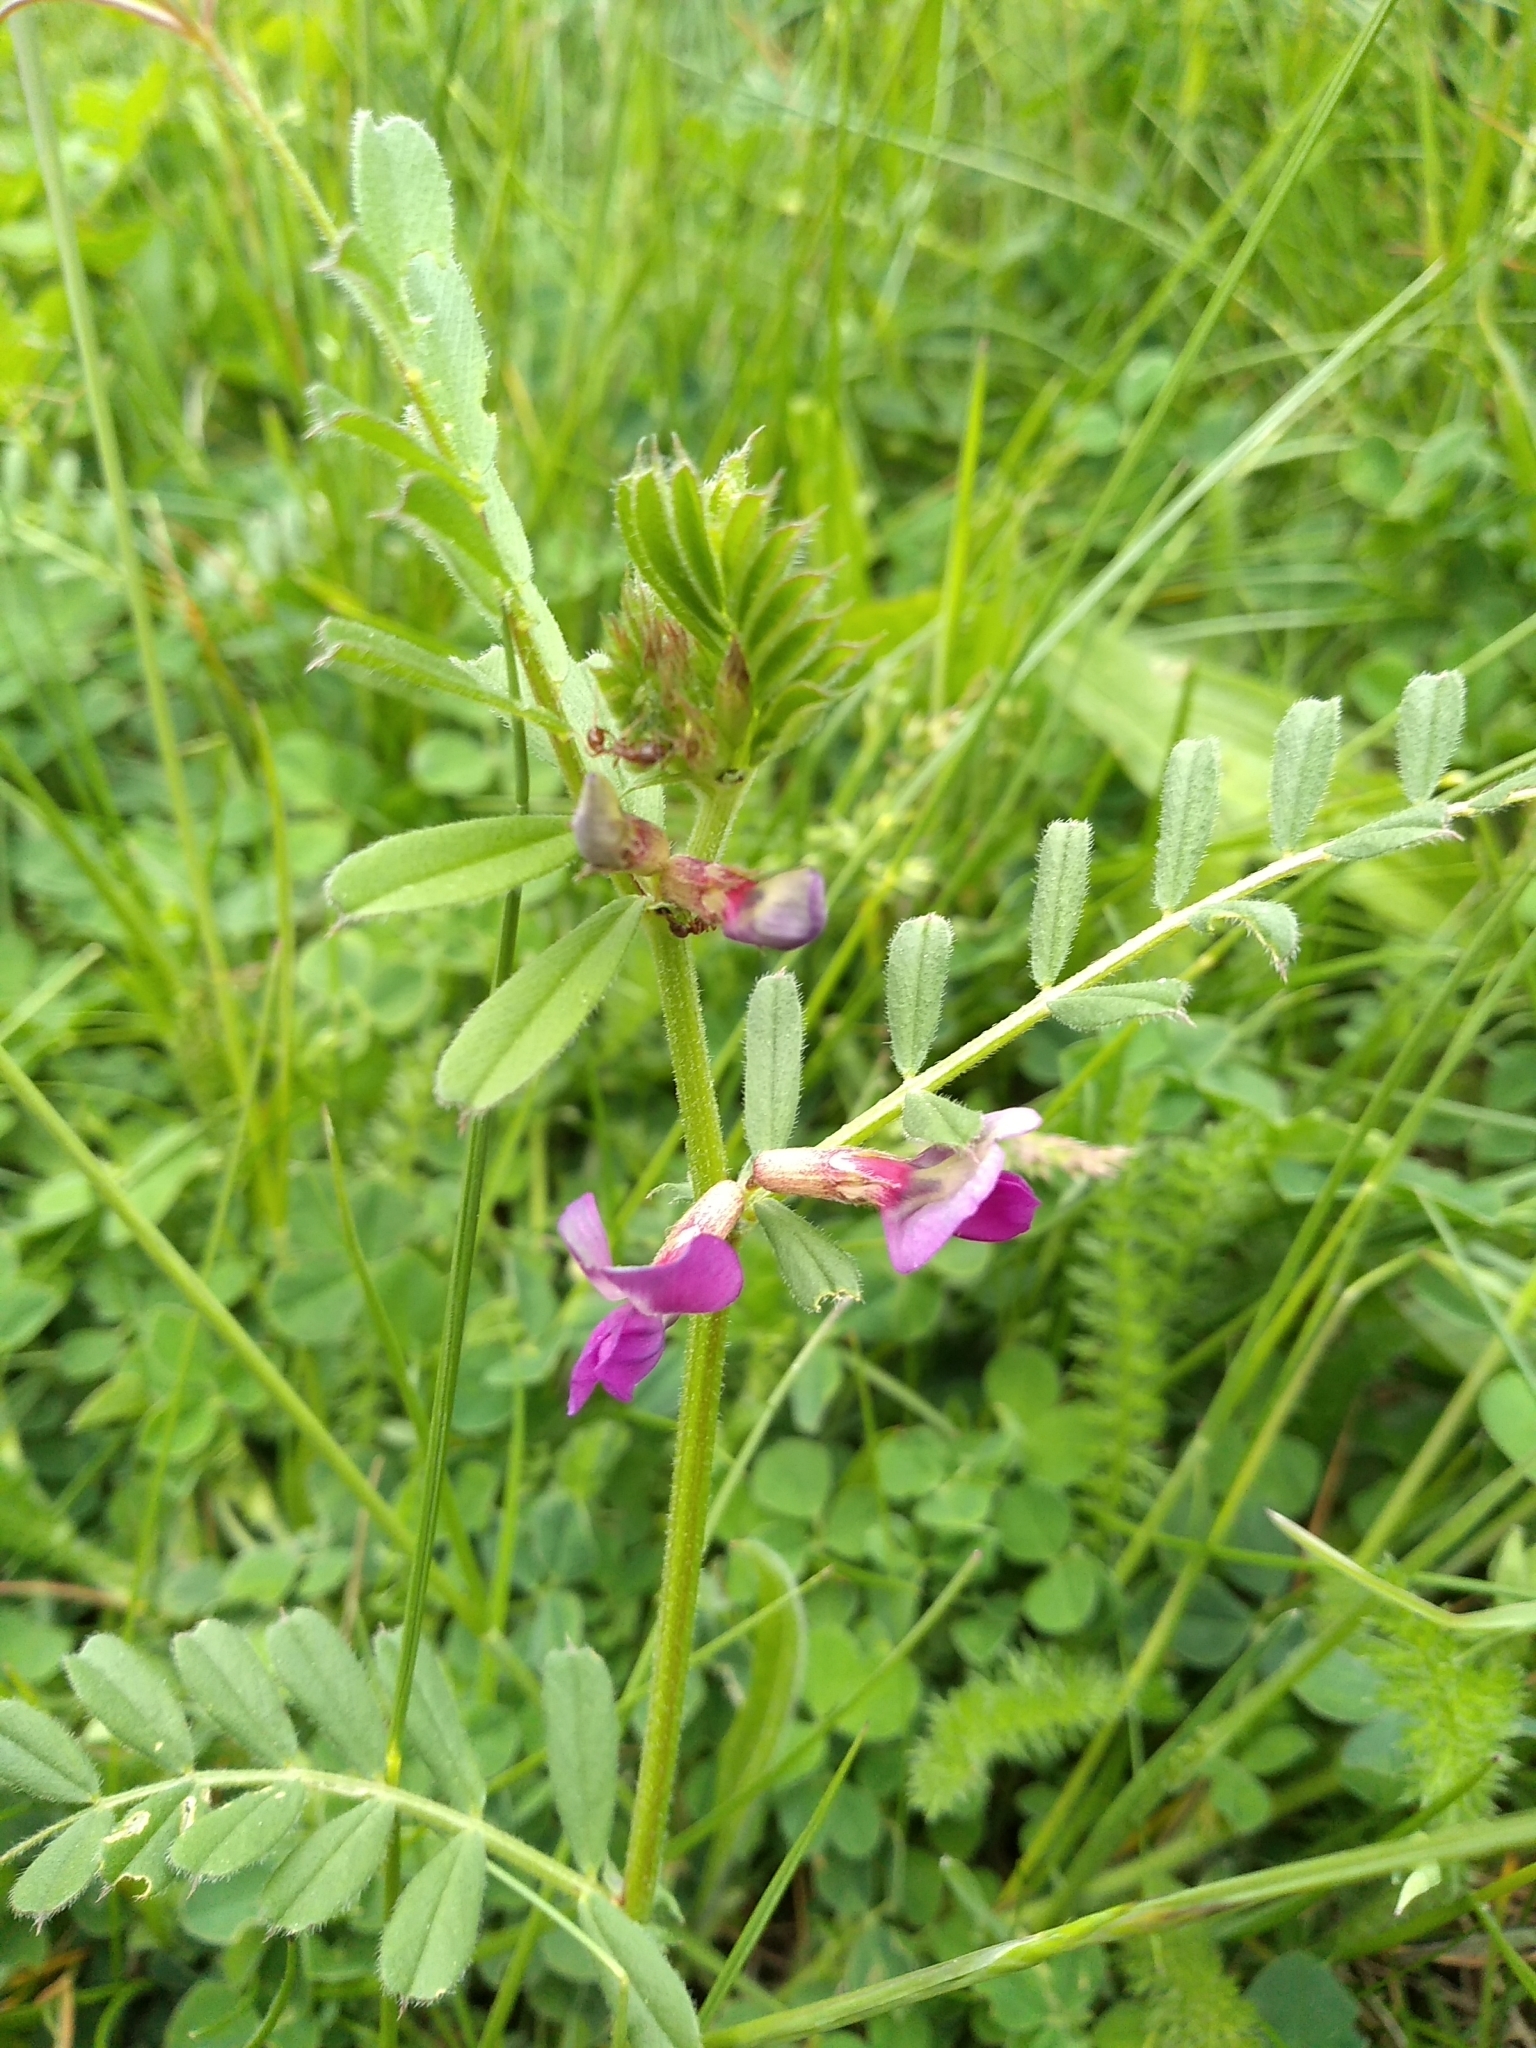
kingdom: Plantae
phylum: Tracheophyta
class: Magnoliopsida
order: Fabales
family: Fabaceae
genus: Vicia
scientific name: Vicia sativa
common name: Garden vetch
